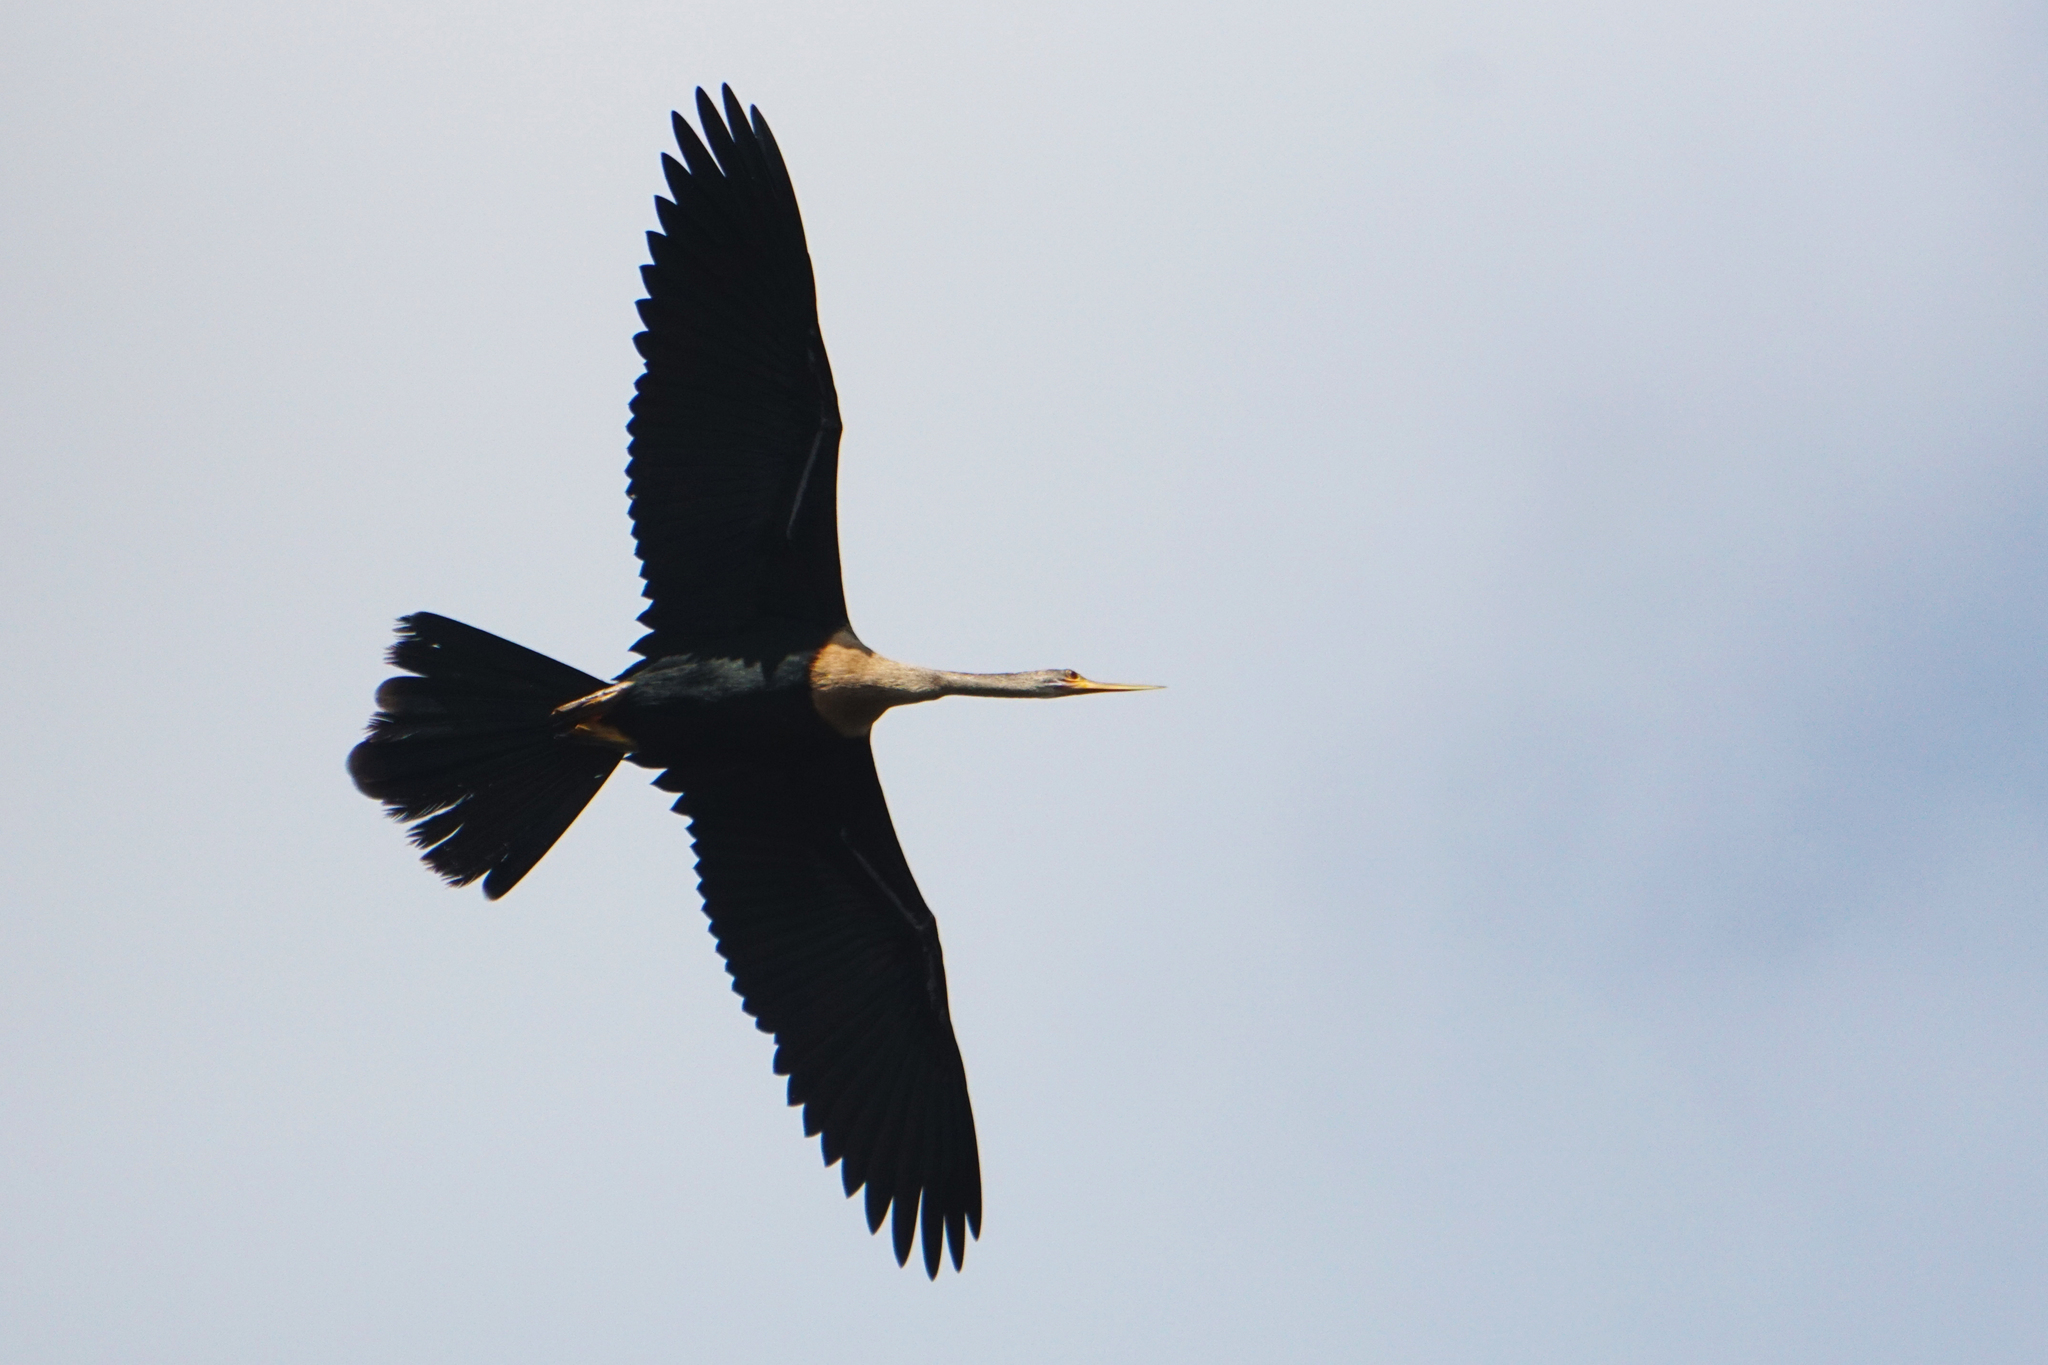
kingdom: Animalia
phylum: Chordata
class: Aves
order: Suliformes
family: Anhingidae
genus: Anhinga
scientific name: Anhinga anhinga
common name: Anhinga
